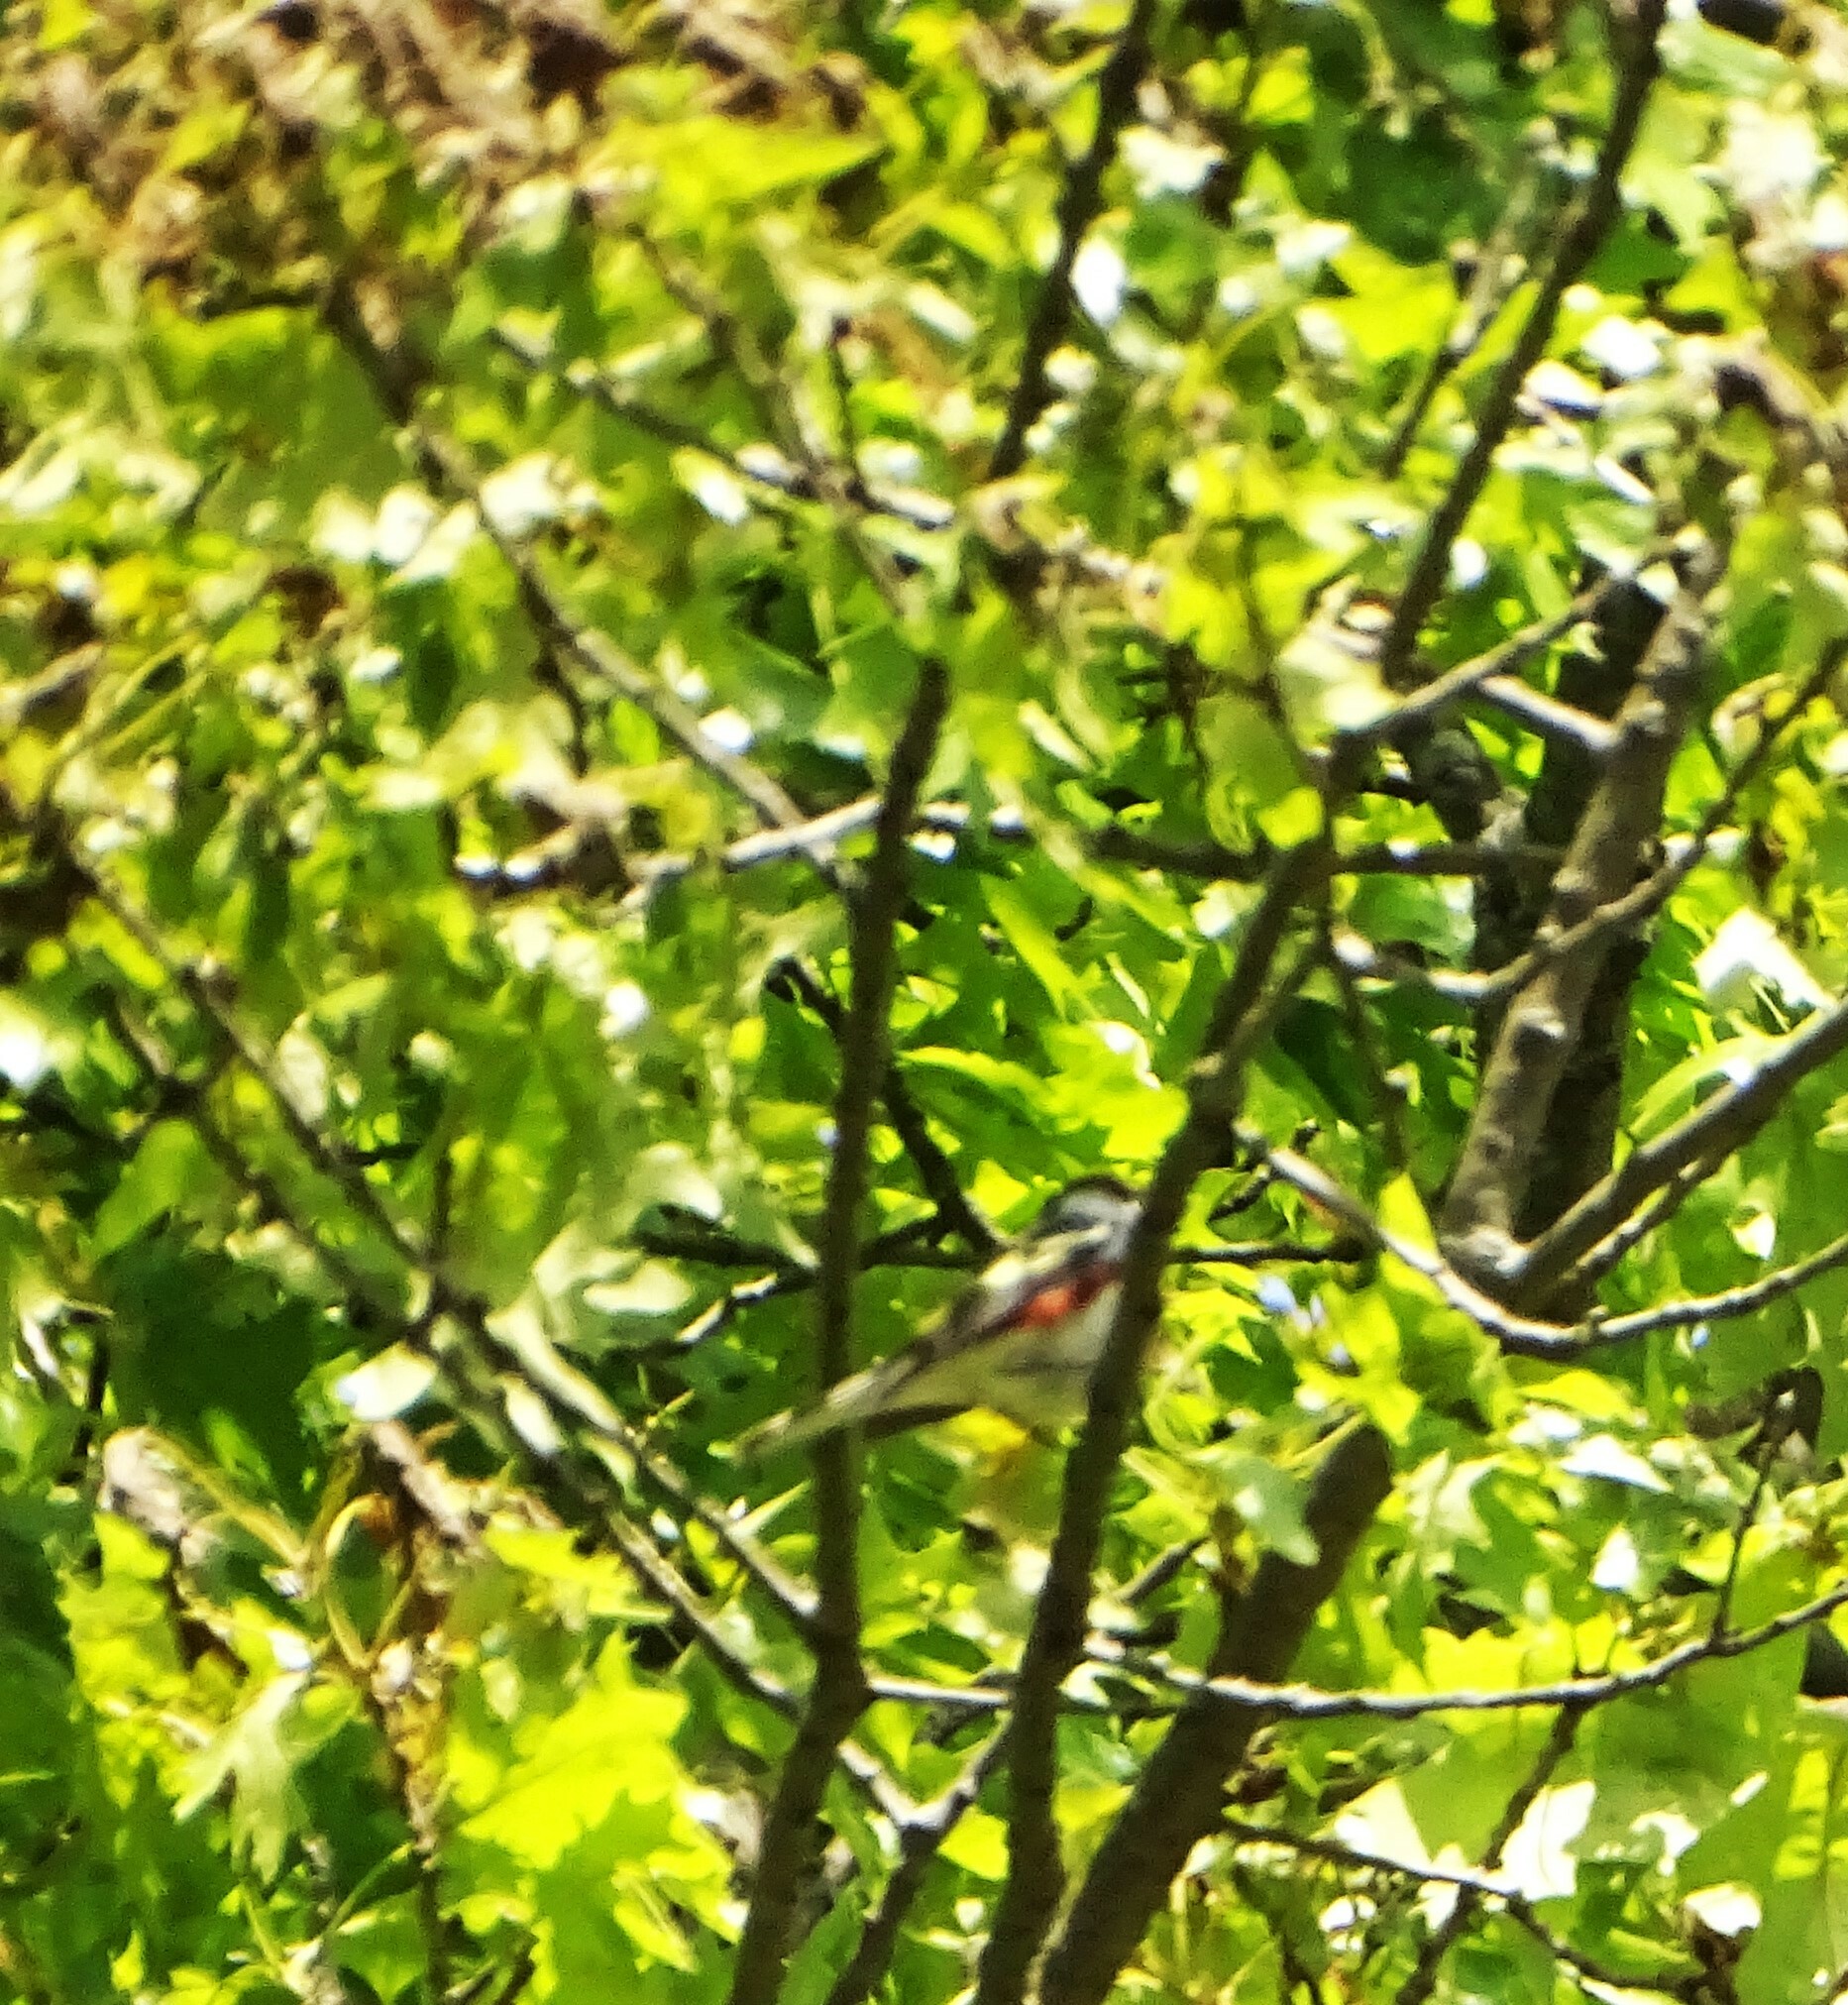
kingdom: Animalia
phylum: Chordata
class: Aves
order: Passeriformes
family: Parulidae
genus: Setophaga
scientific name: Setophaga pensylvanica
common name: Chestnut-sided warbler
